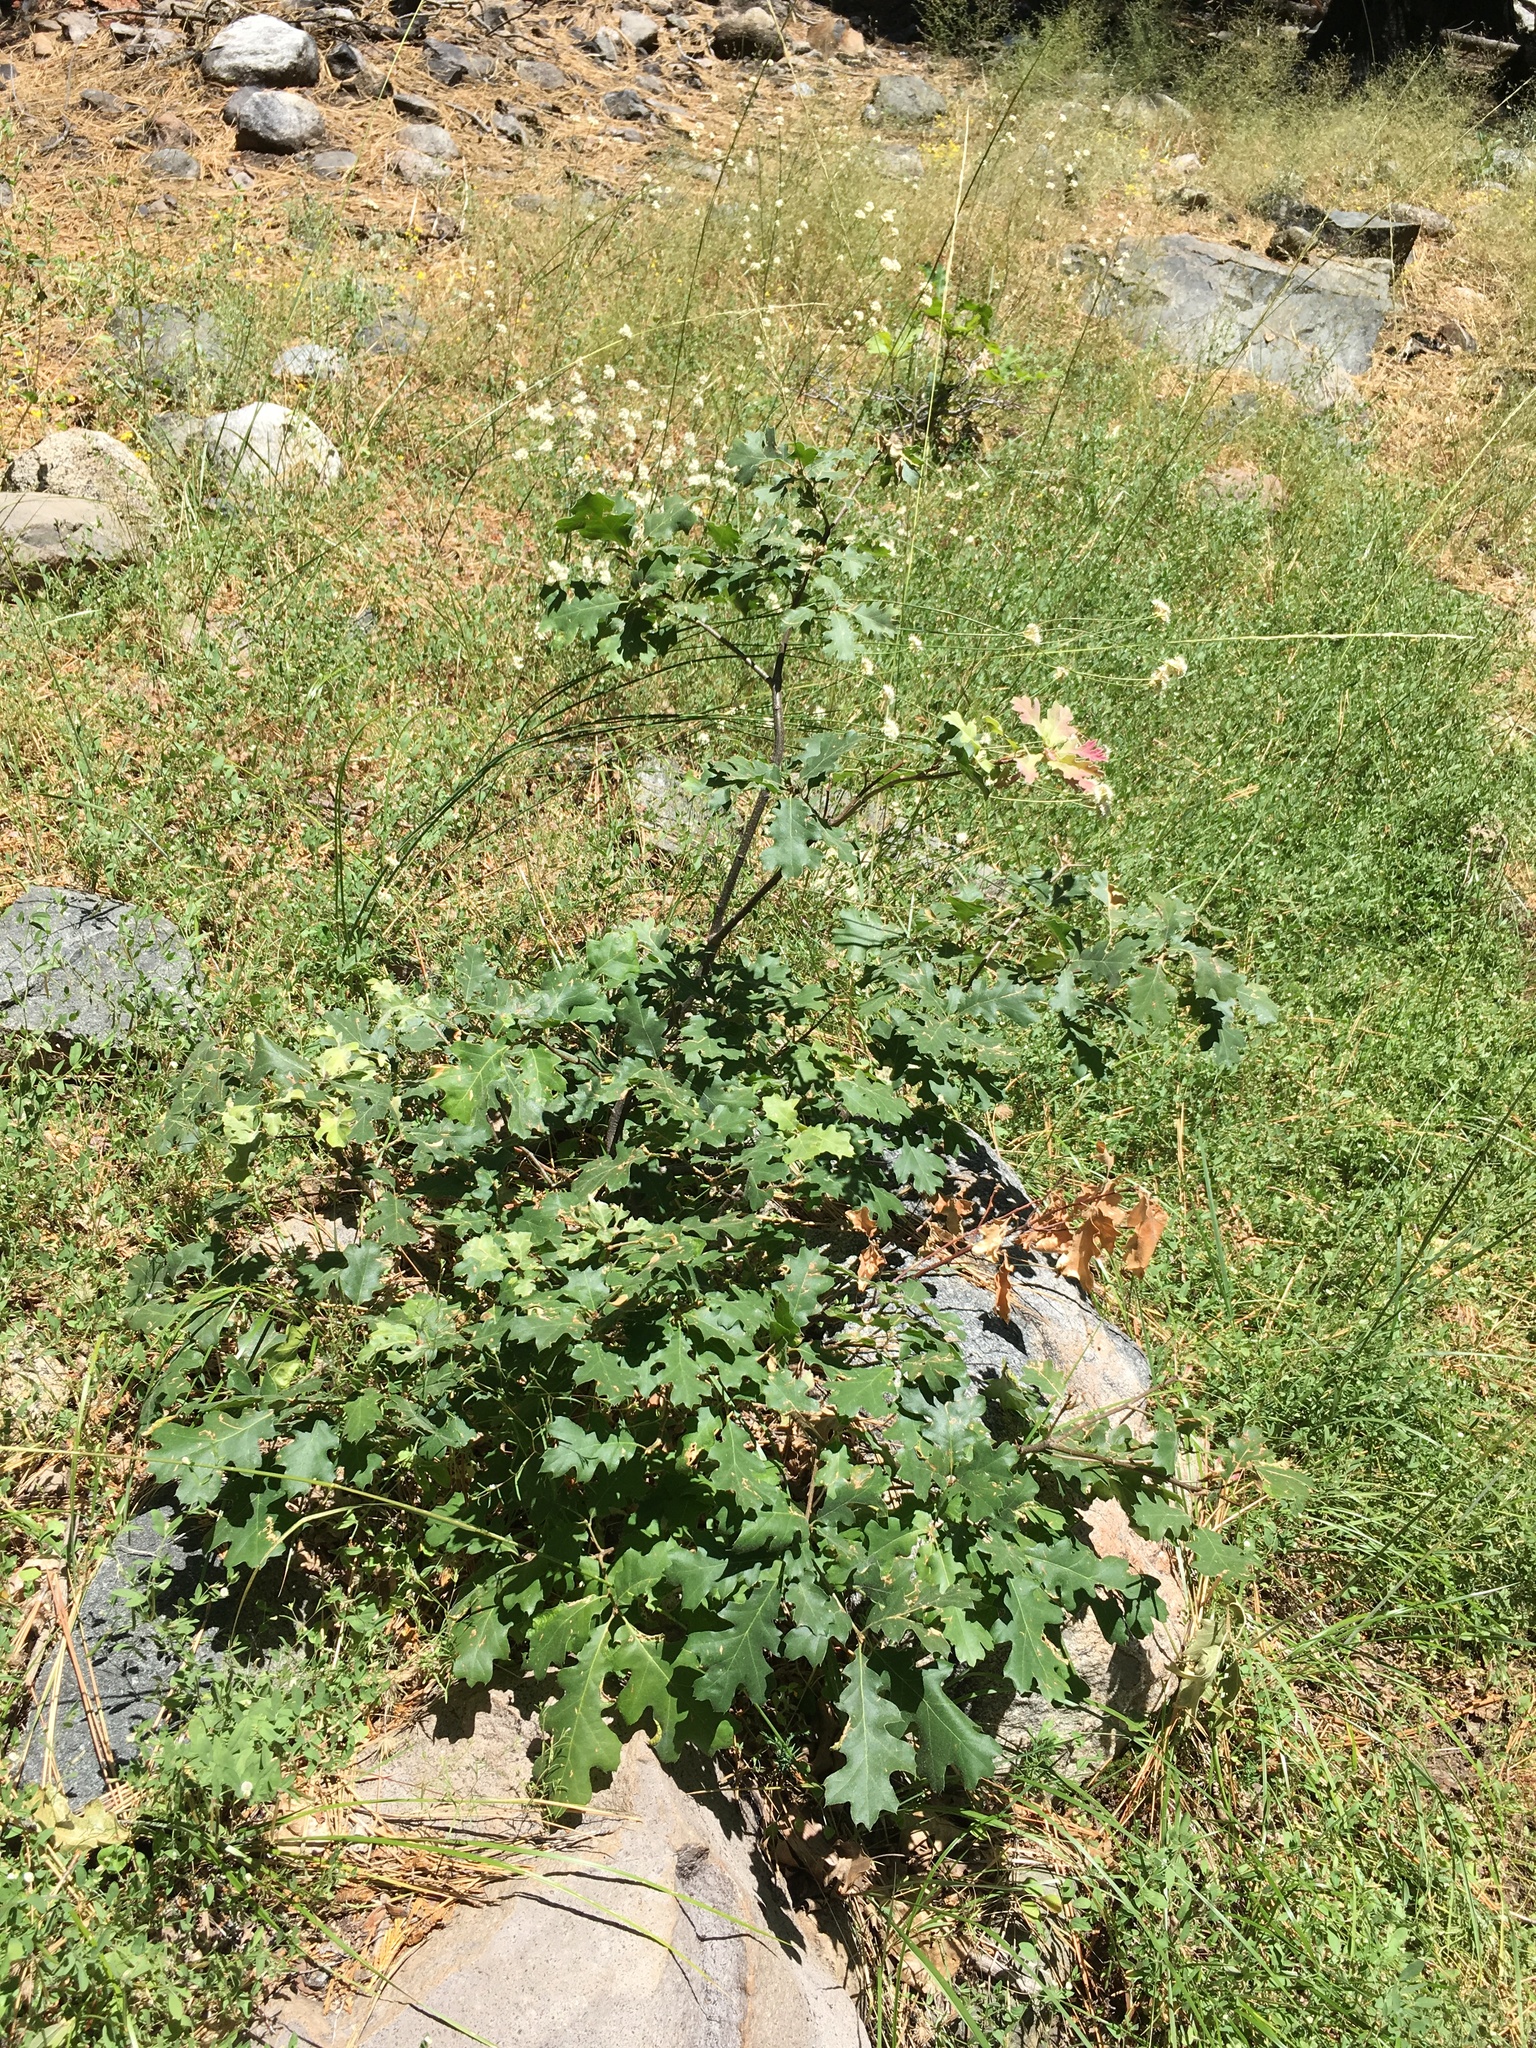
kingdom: Plantae
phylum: Tracheophyta
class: Magnoliopsida
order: Fagales
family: Fagaceae
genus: Quercus
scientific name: Quercus kelloggii
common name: California black oak
